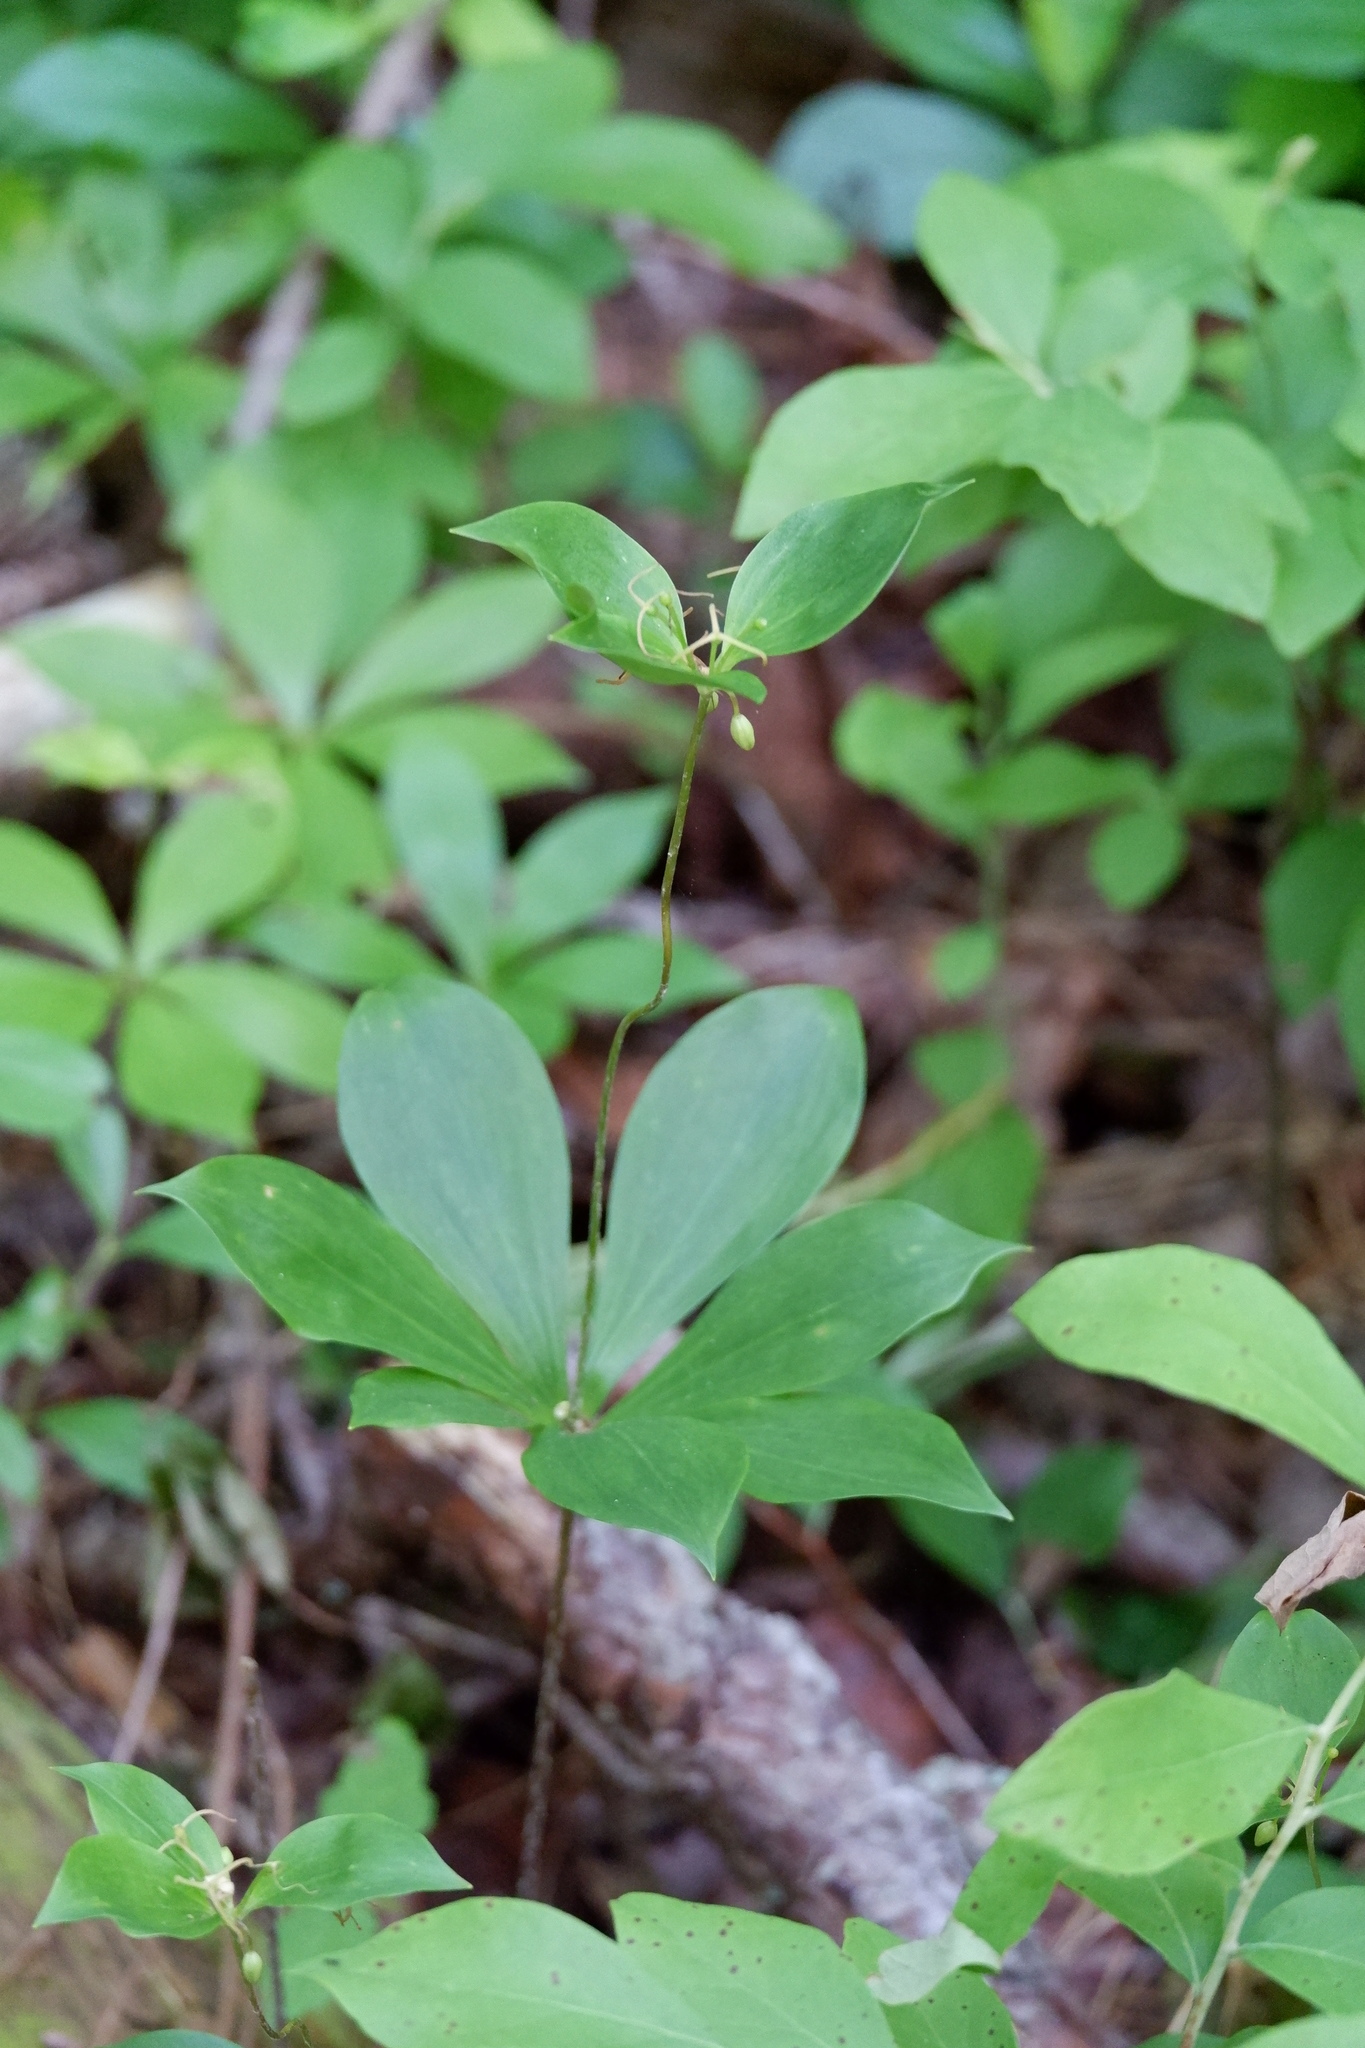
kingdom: Plantae
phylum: Tracheophyta
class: Liliopsida
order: Liliales
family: Liliaceae
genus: Medeola
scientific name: Medeola virginiana
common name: Indian cucumber-root
